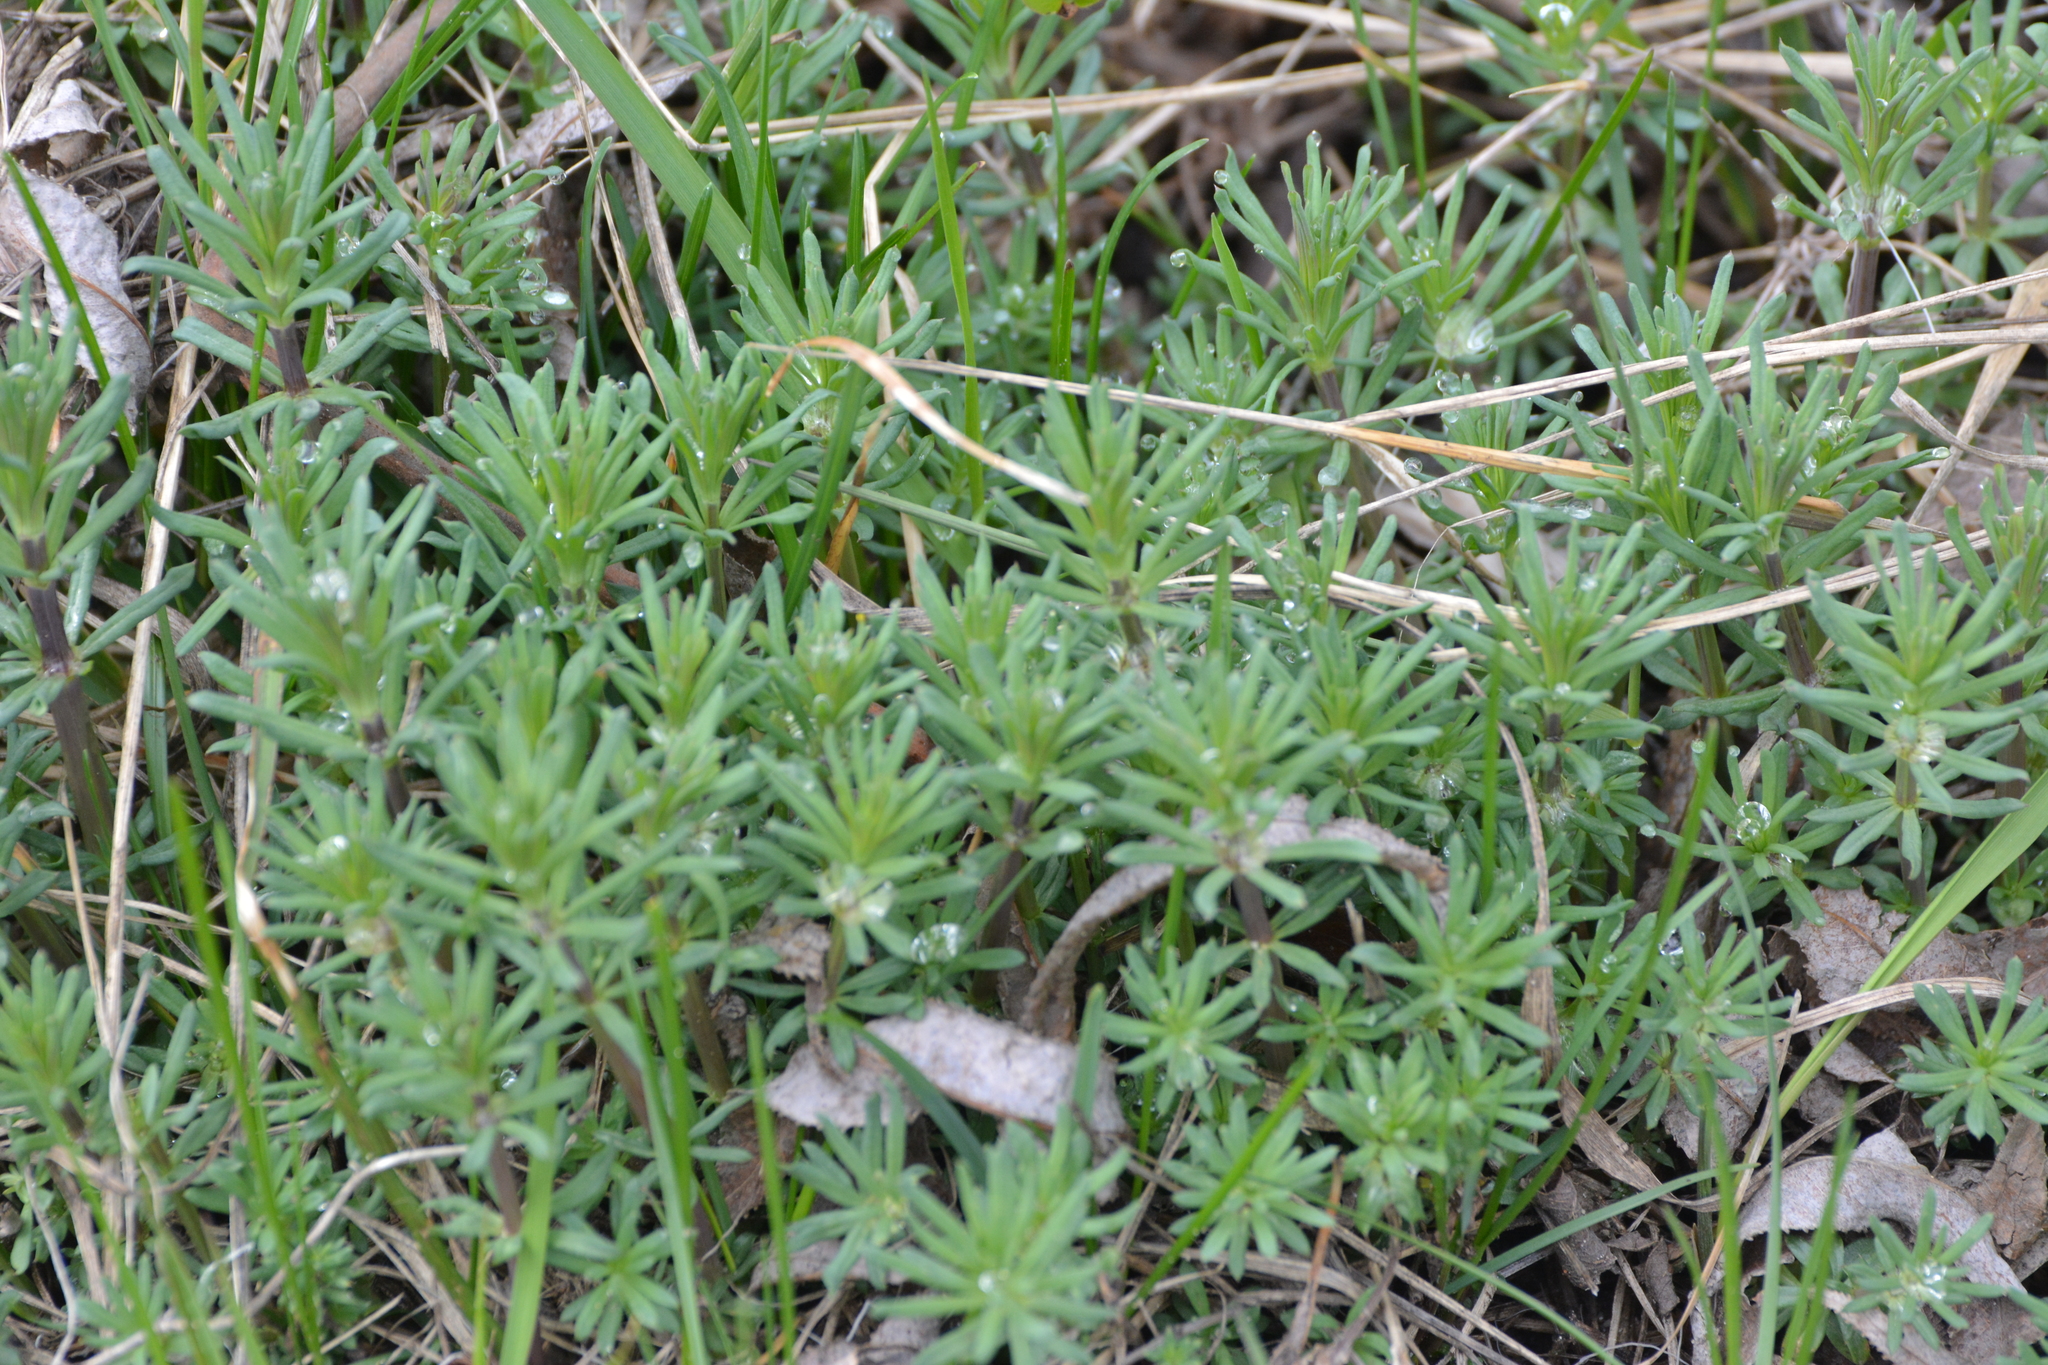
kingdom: Plantae
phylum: Tracheophyta
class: Magnoliopsida
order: Gentianales
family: Rubiaceae
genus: Galium
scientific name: Galium mollugo
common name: Hedge bedstraw
